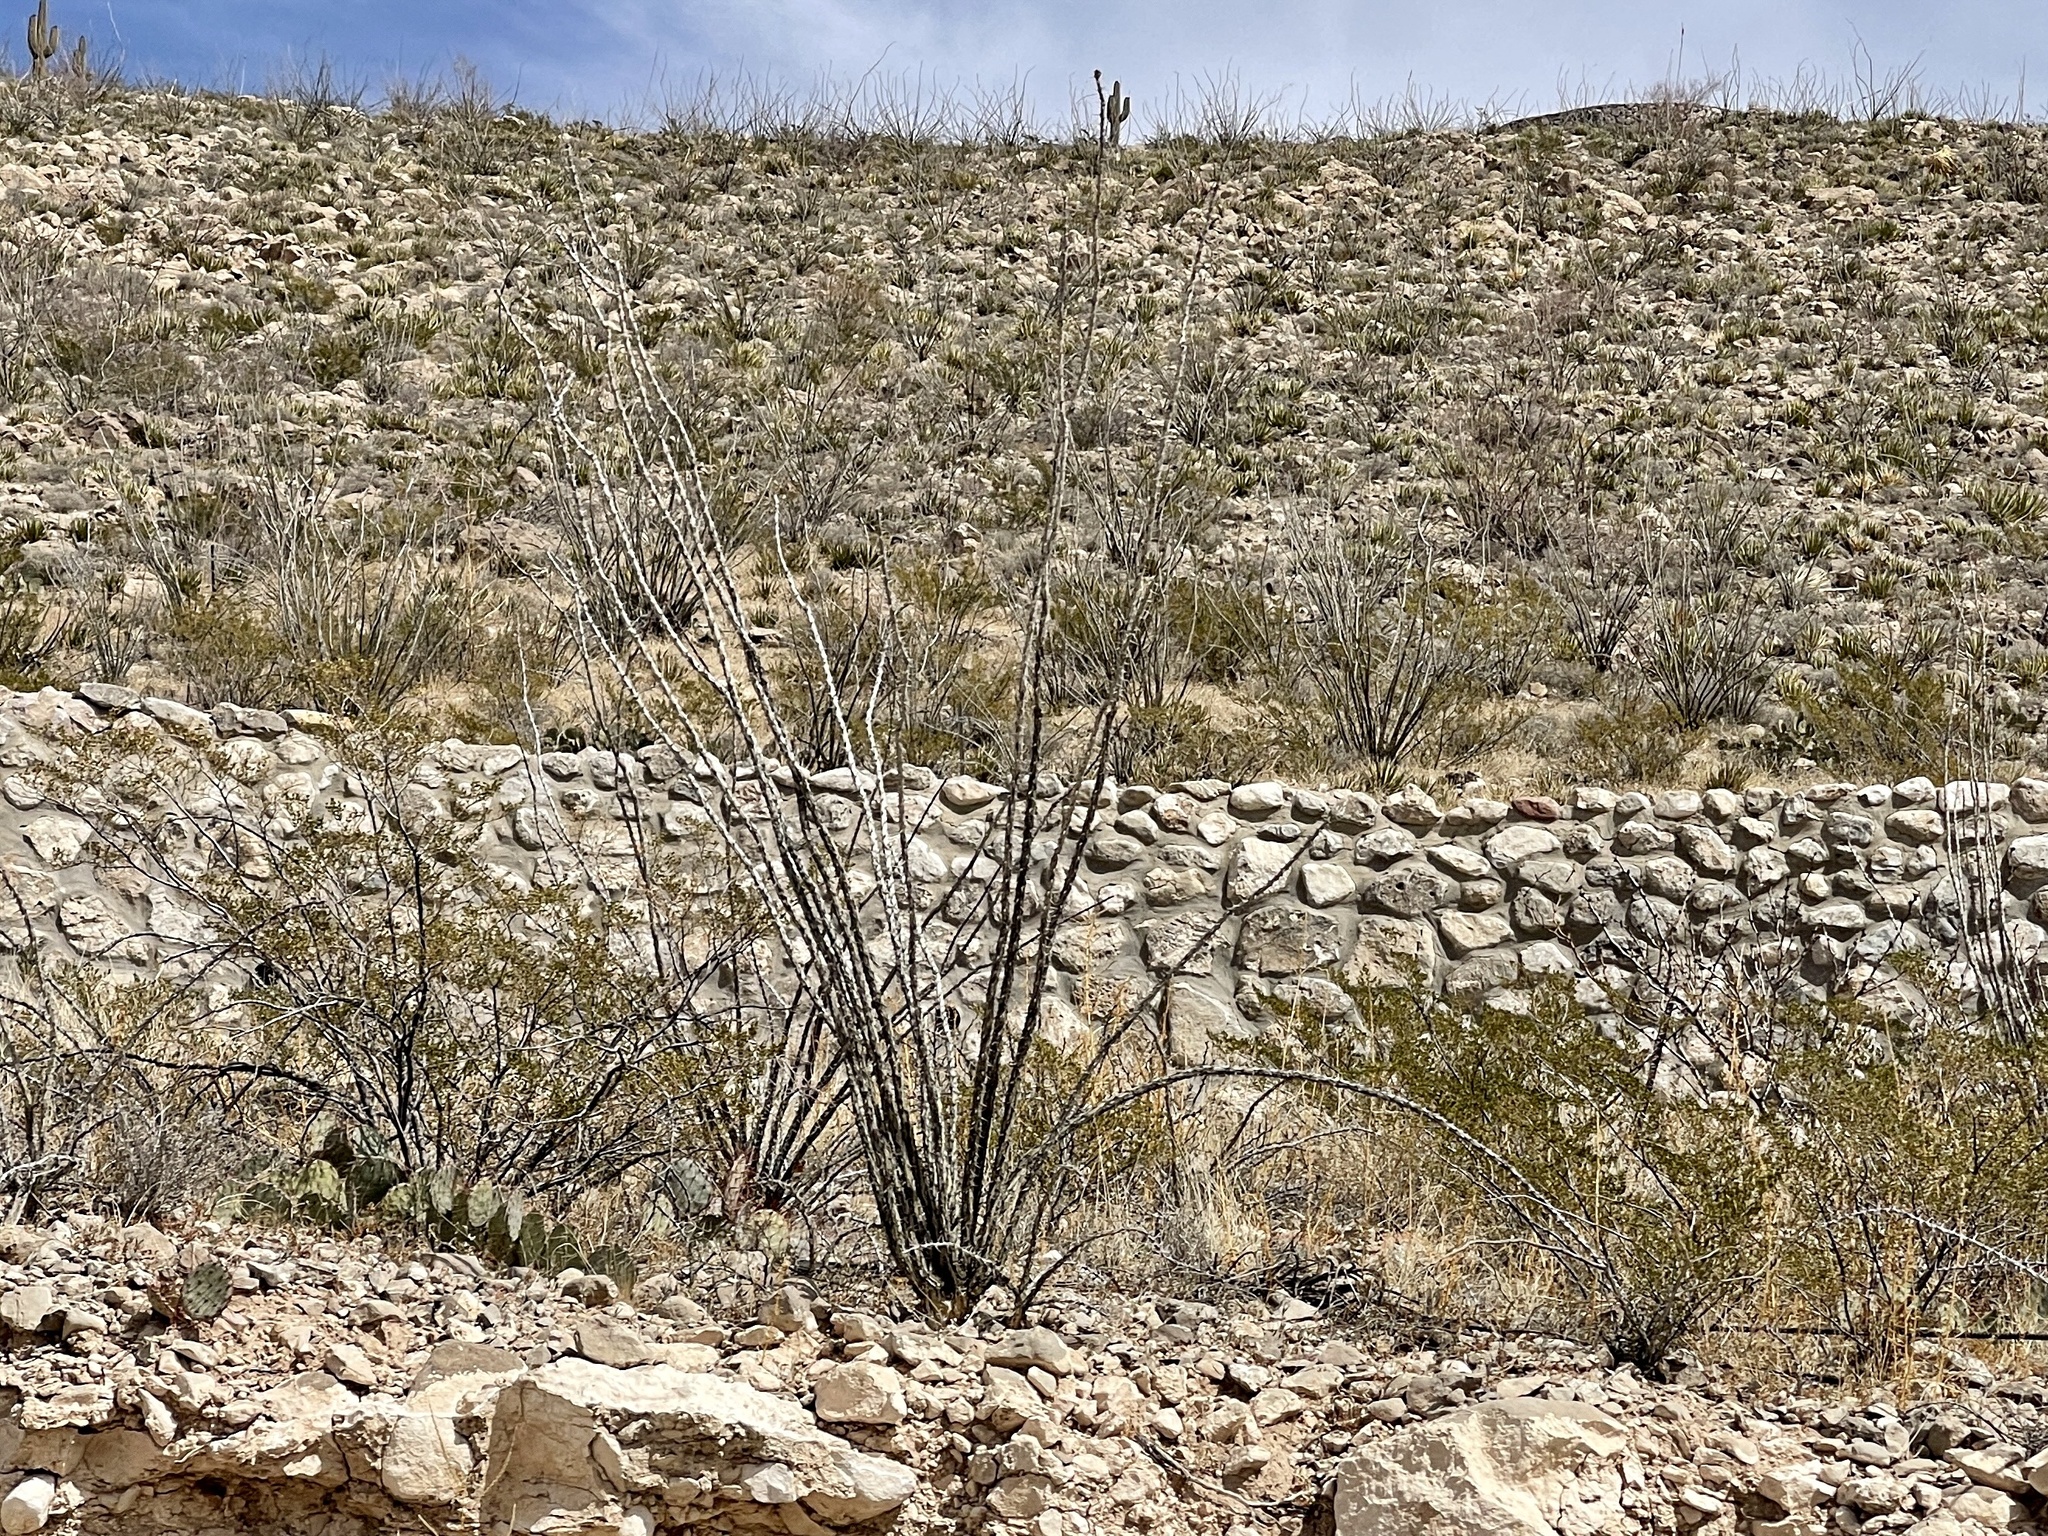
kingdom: Plantae
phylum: Tracheophyta
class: Magnoliopsida
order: Ericales
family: Fouquieriaceae
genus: Fouquieria
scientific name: Fouquieria splendens
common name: Vine-cactus
